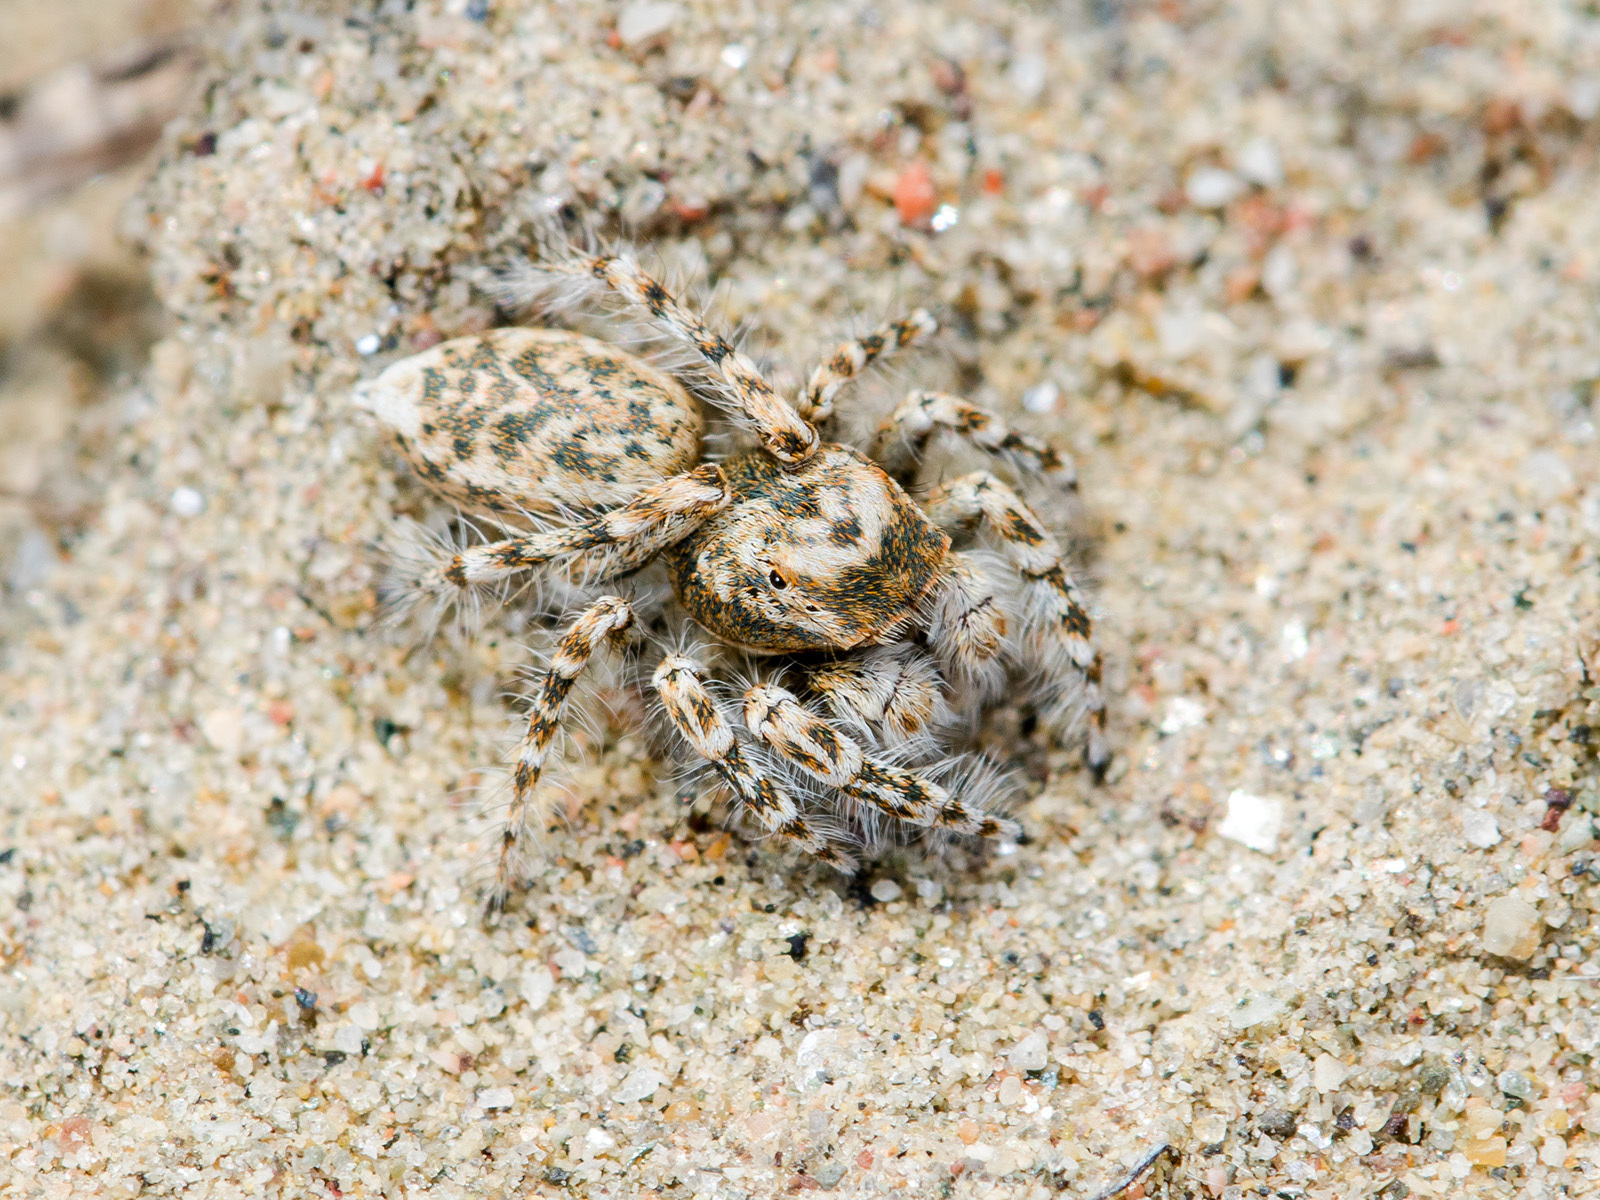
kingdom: Animalia
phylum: Arthropoda
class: Arachnida
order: Araneae
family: Salticidae
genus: Yllenus
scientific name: Yllenus uiguricus
